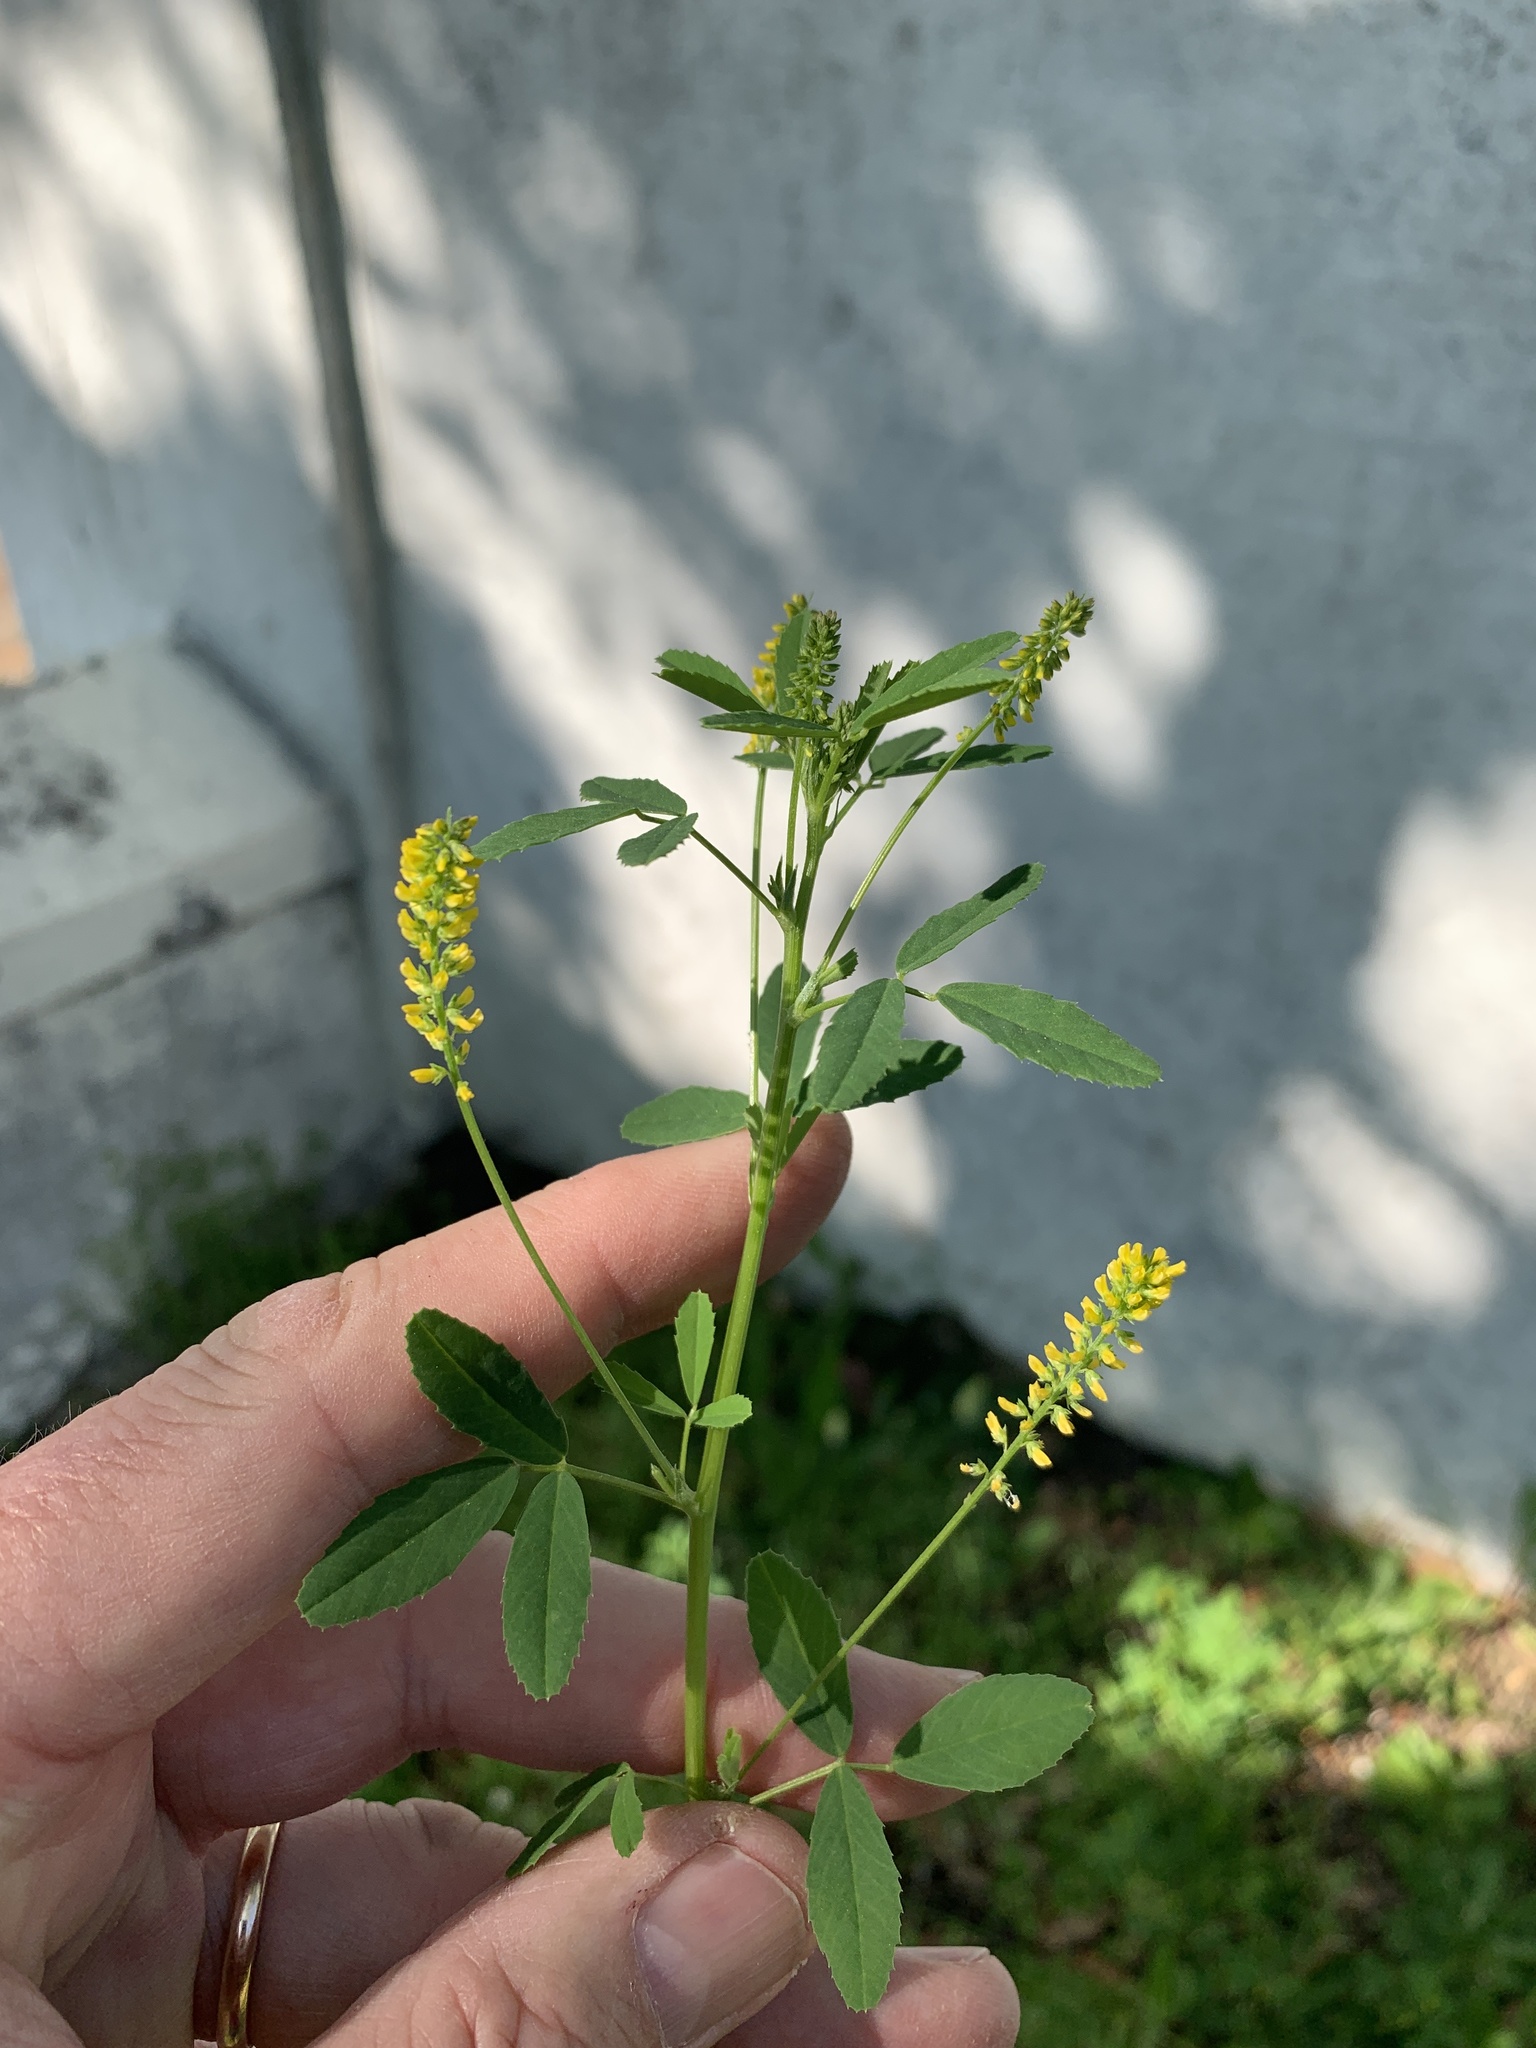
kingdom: Plantae
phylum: Tracheophyta
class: Magnoliopsida
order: Fabales
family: Fabaceae
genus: Melilotus
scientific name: Melilotus indicus
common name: Small melilot
